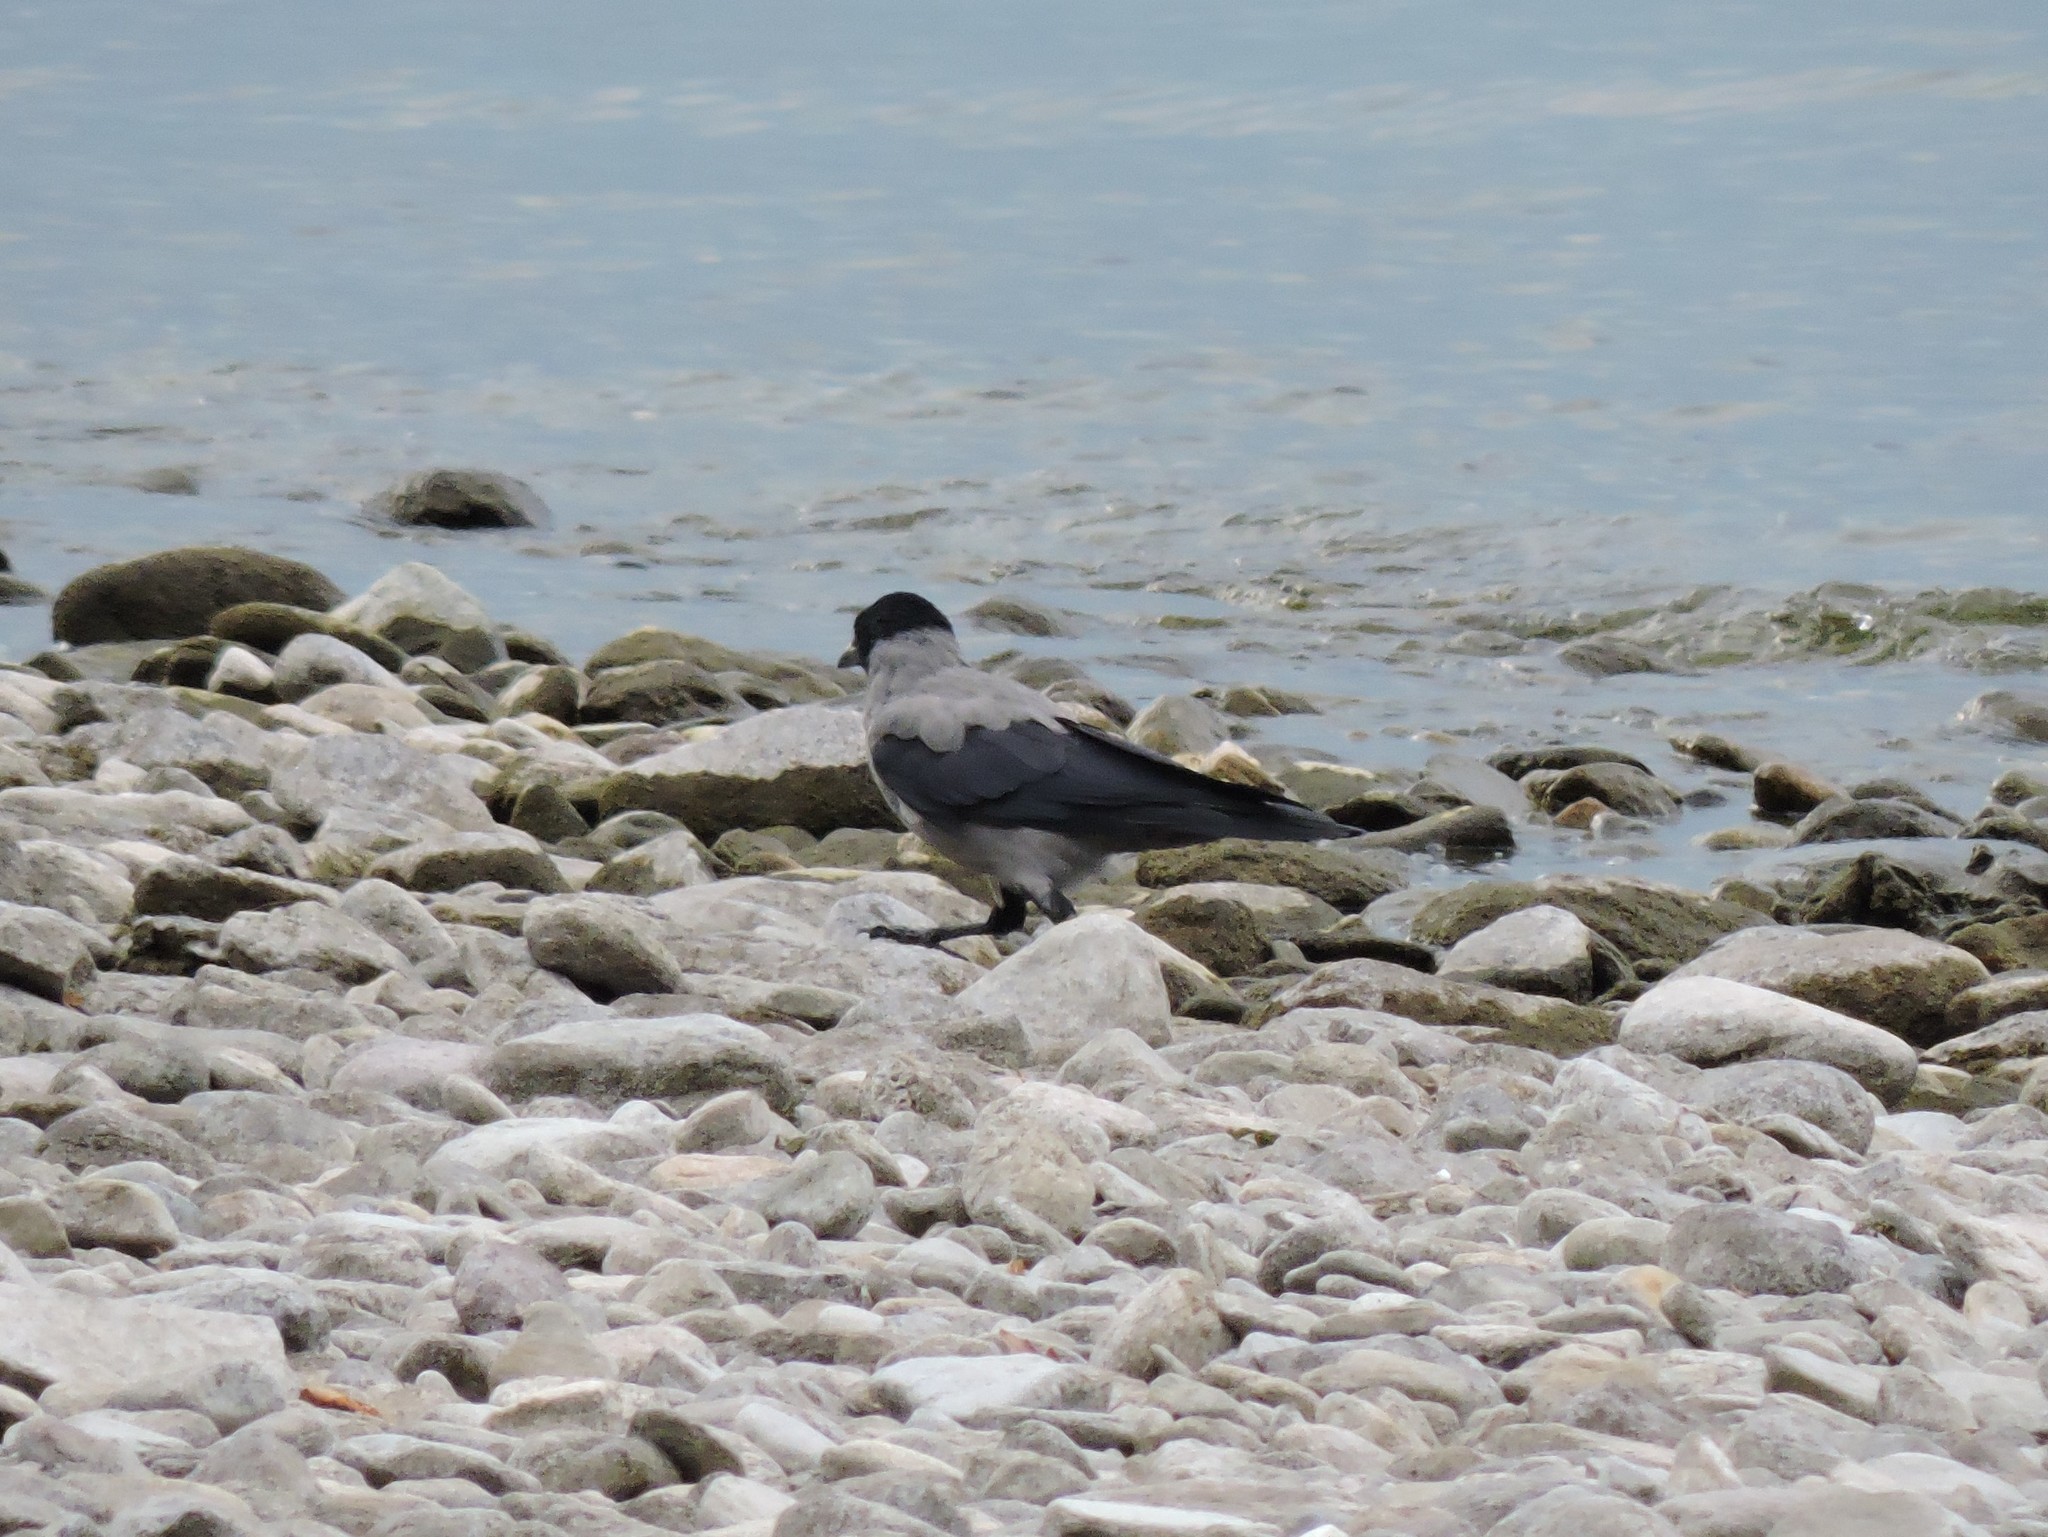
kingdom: Animalia
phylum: Chordata
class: Aves
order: Passeriformes
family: Corvidae
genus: Corvus
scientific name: Corvus cornix
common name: Hooded crow
